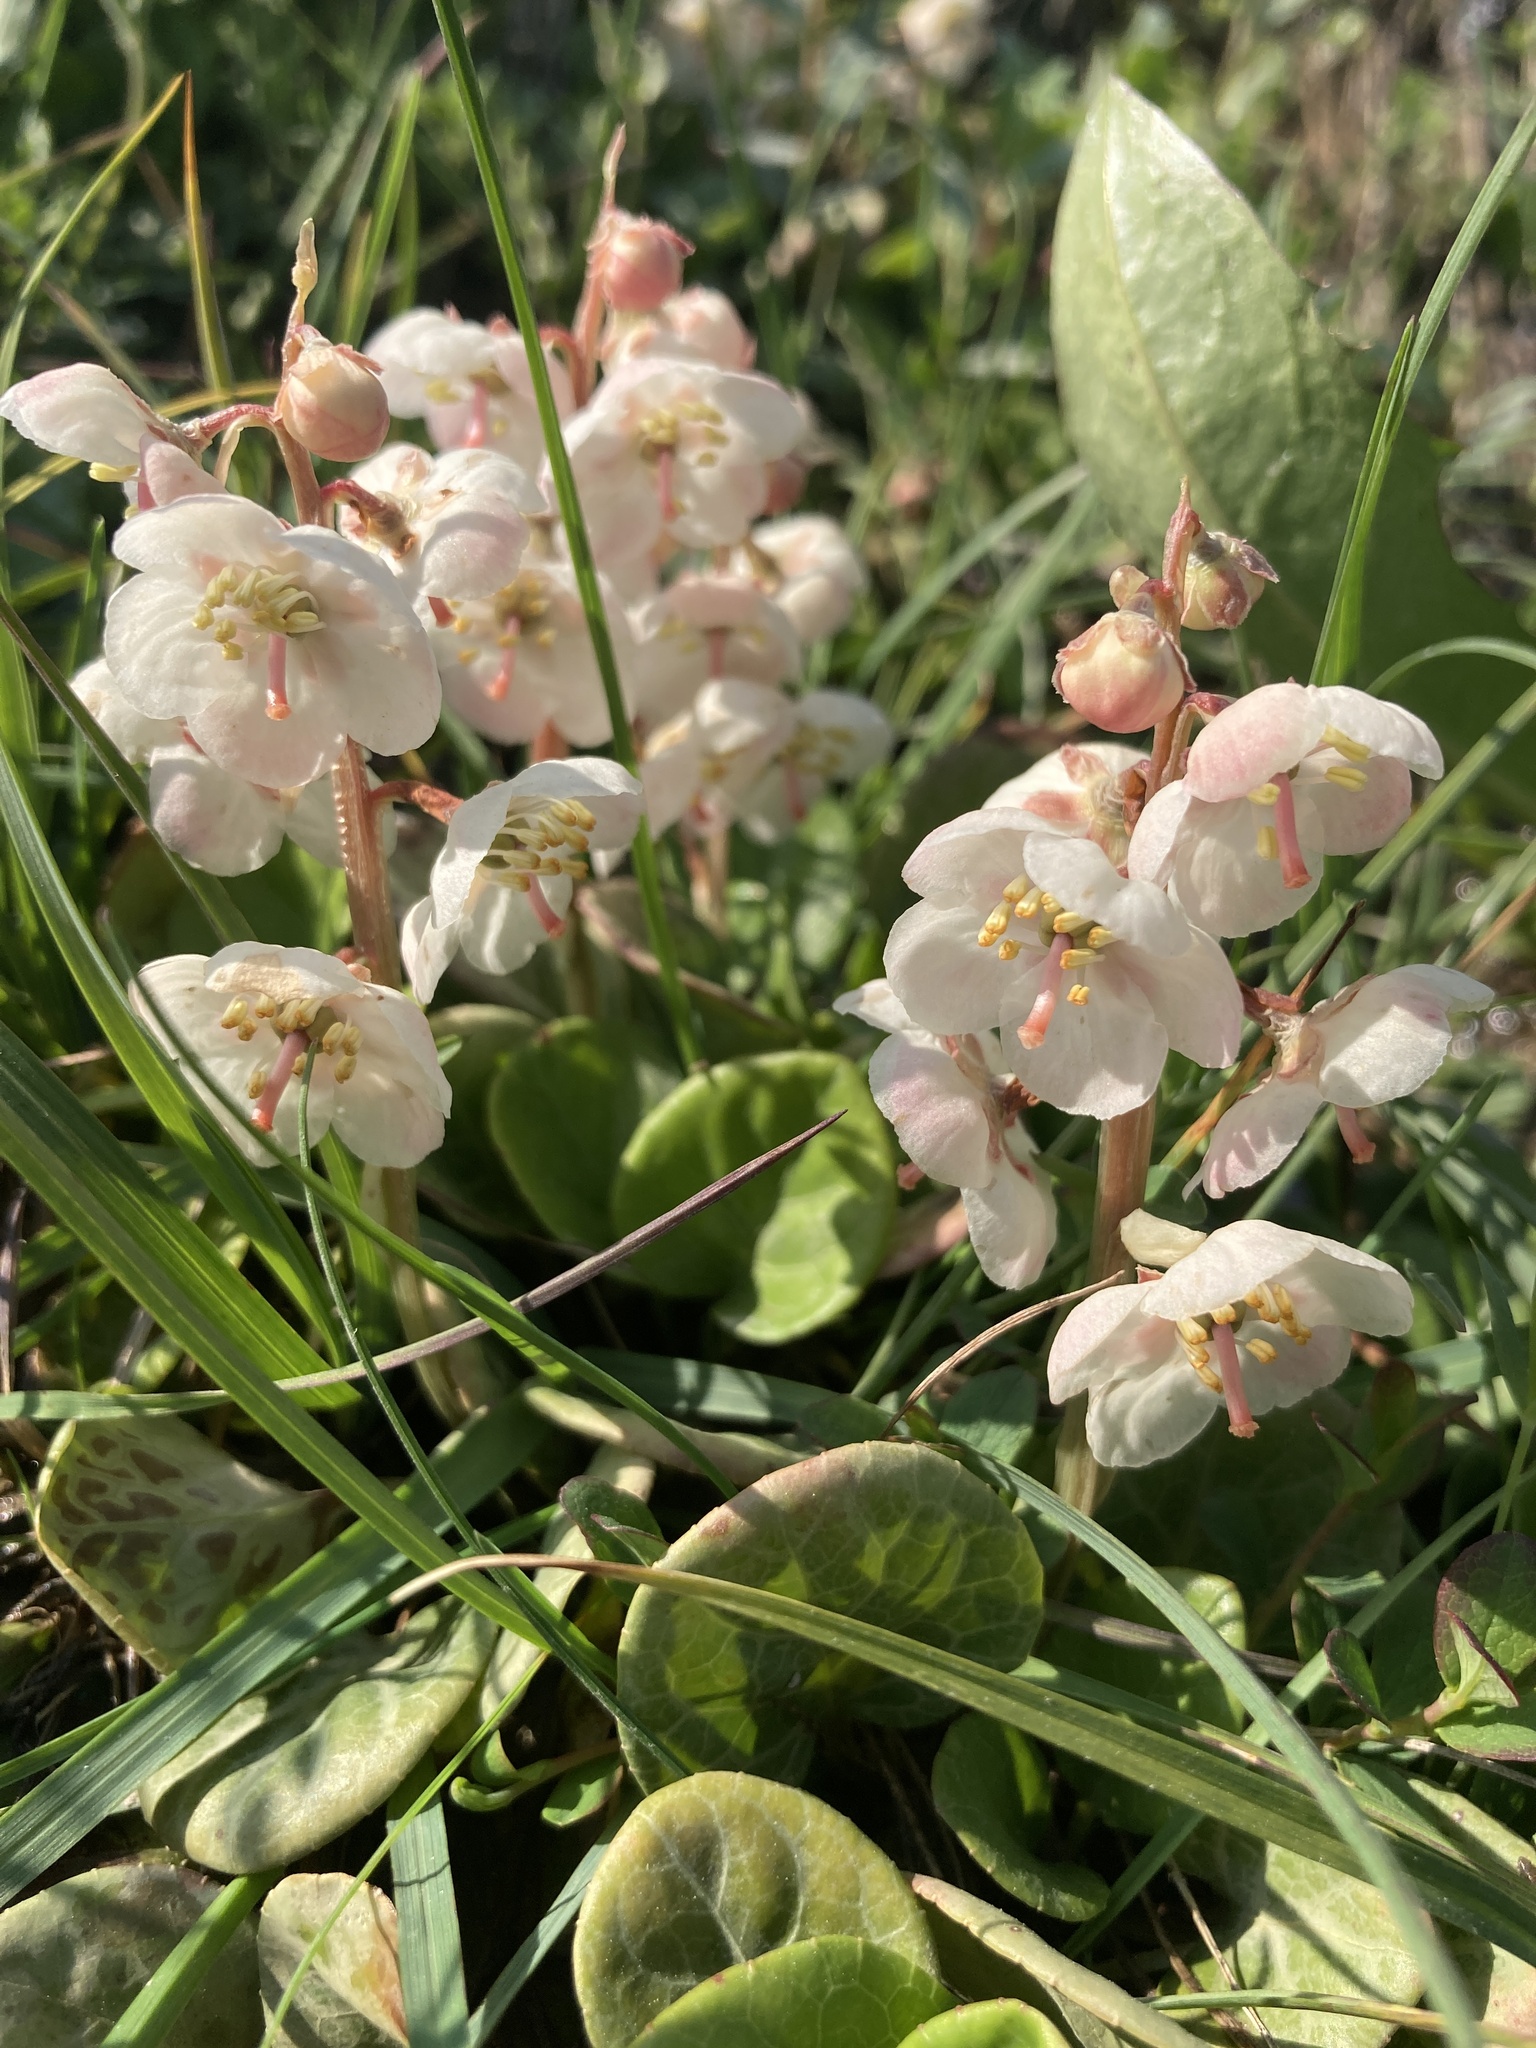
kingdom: Plantae
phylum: Tracheophyta
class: Magnoliopsida
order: Ericales
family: Ericaceae
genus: Pyrola
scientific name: Pyrola grandiflora
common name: Arctic pyrola
